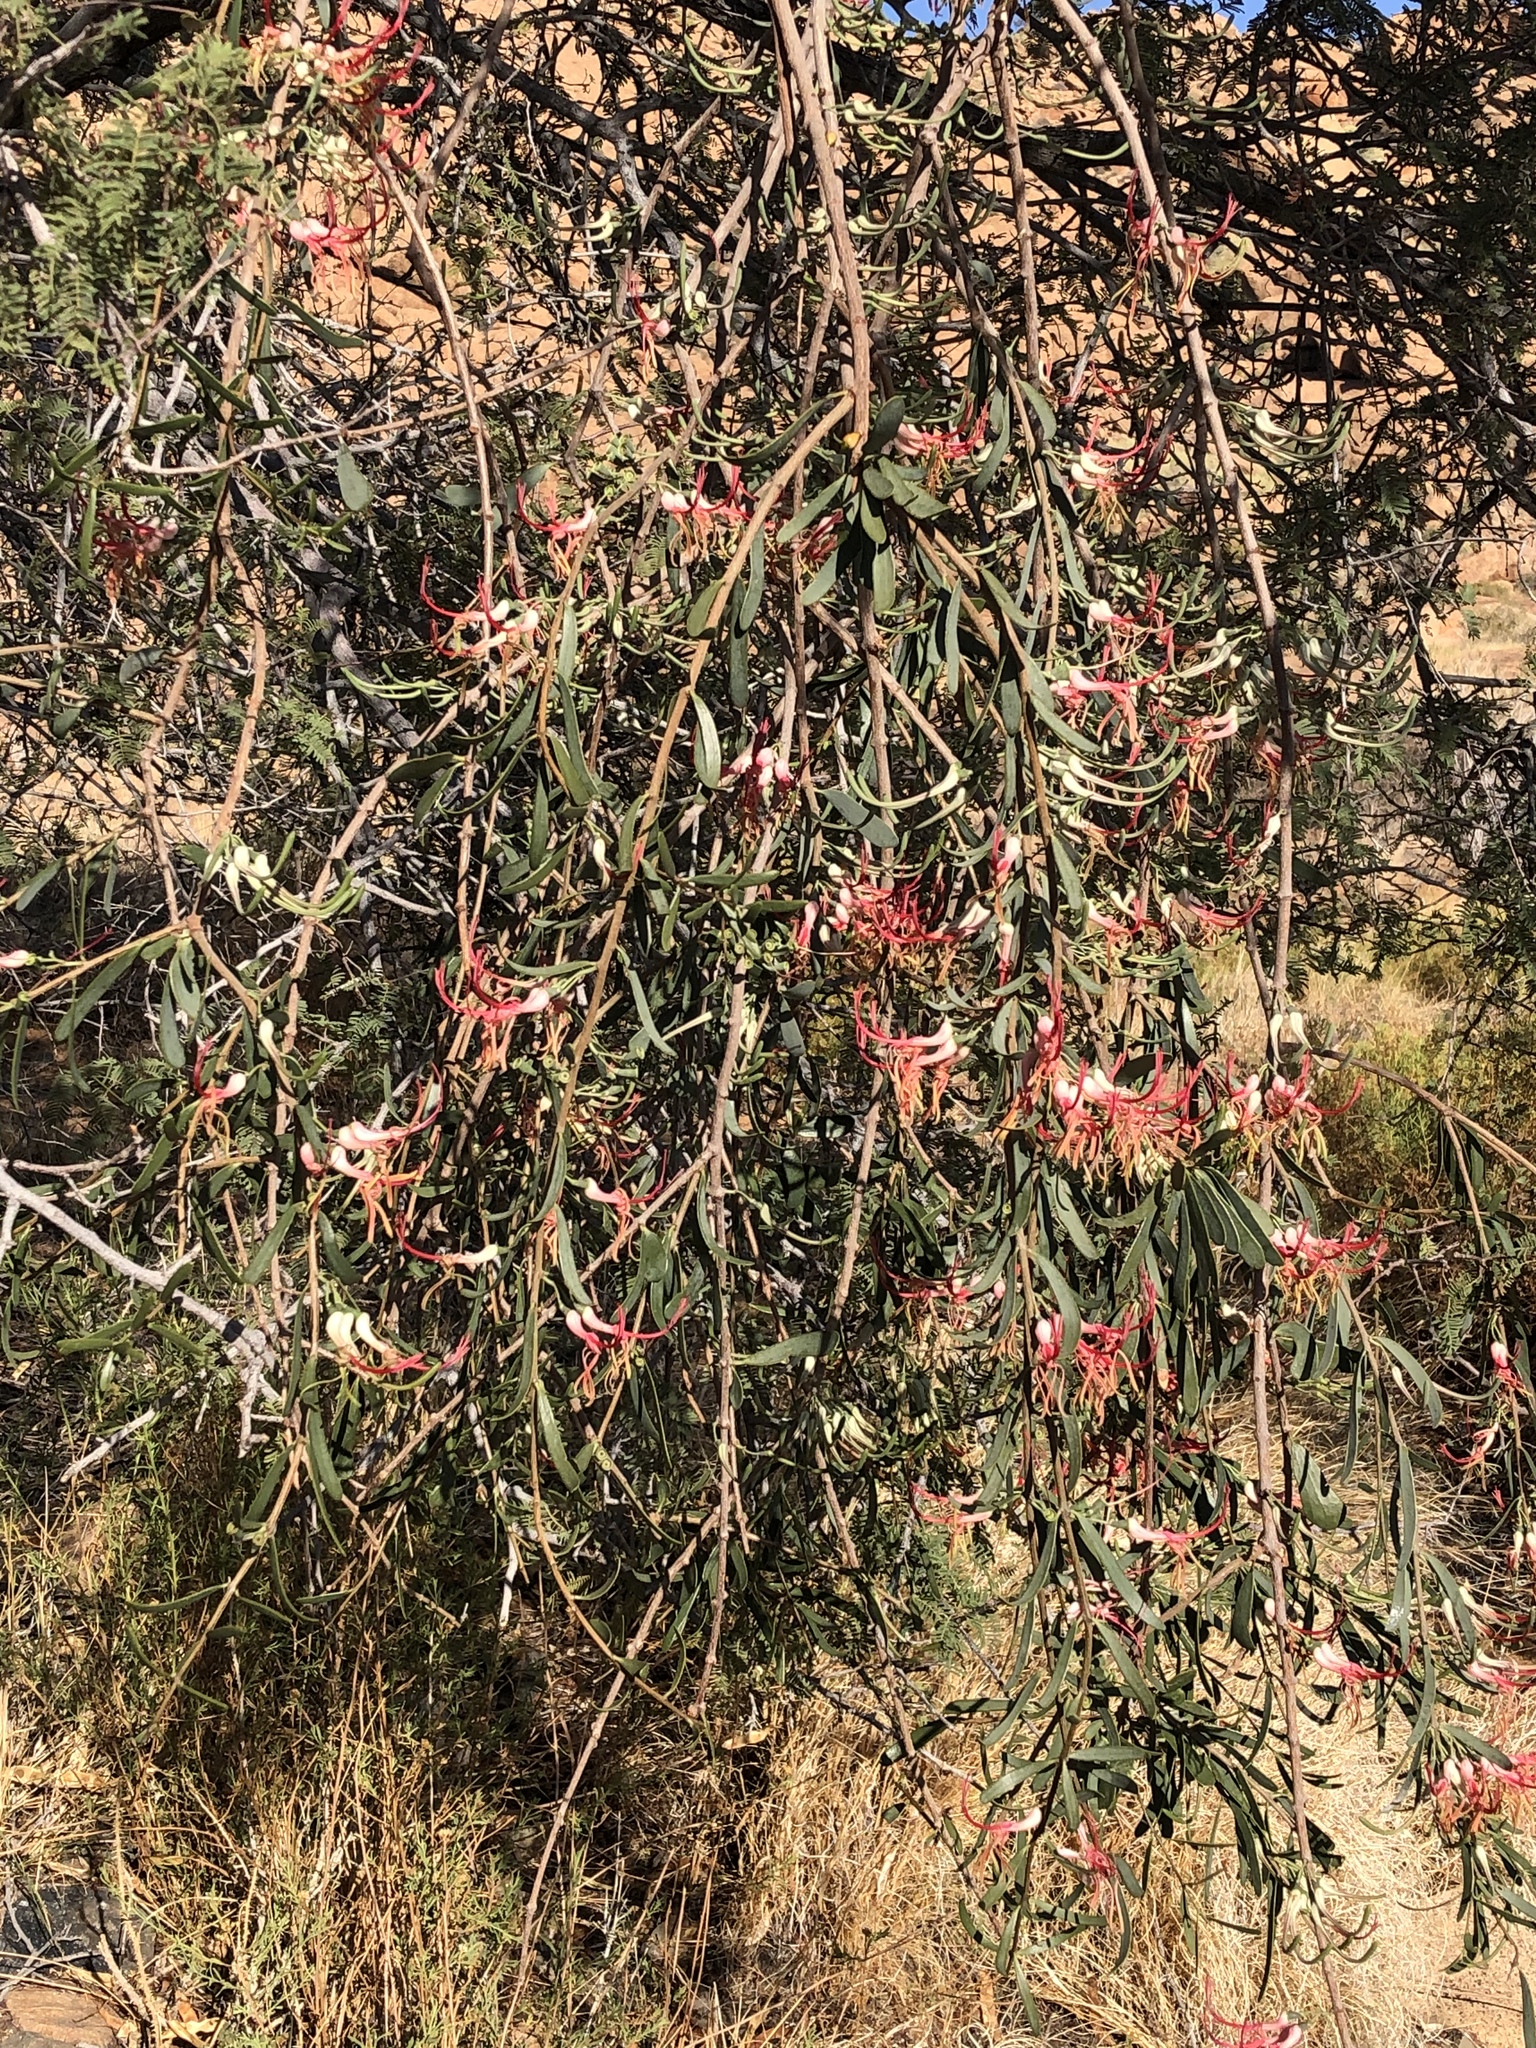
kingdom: Plantae
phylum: Tracheophyta
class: Magnoliopsida
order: Santalales
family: Loranthaceae
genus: Plicosepalus
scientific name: Plicosepalus kalachariensis
